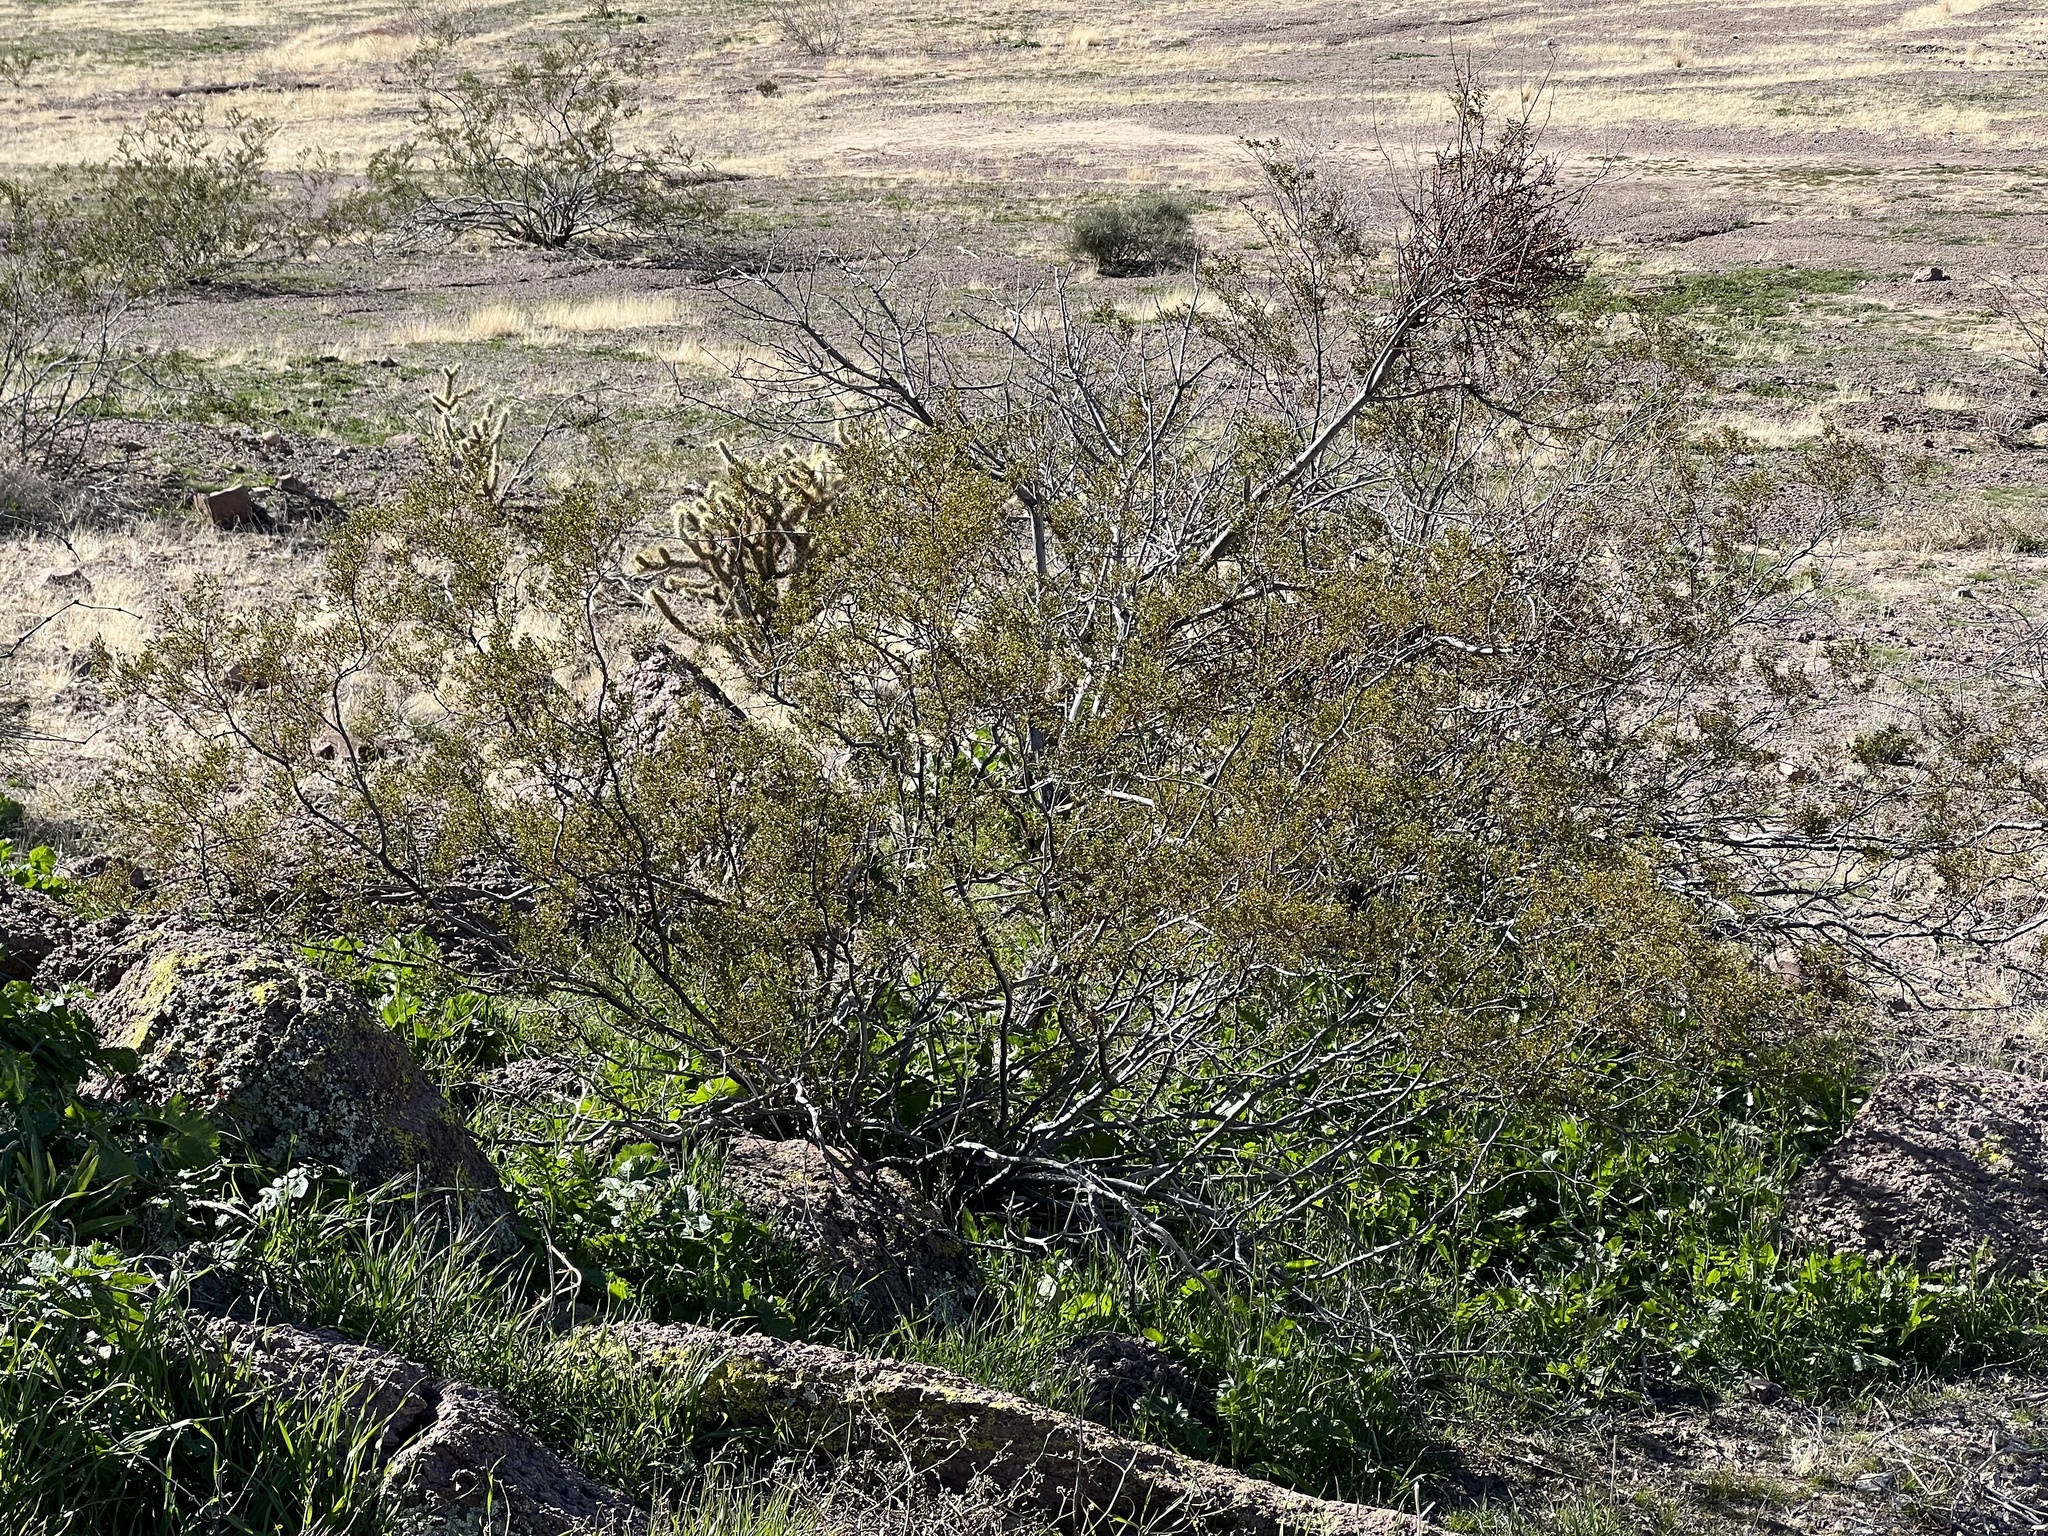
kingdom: Plantae
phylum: Tracheophyta
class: Magnoliopsida
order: Zygophyllales
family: Zygophyllaceae
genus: Larrea
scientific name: Larrea tridentata
